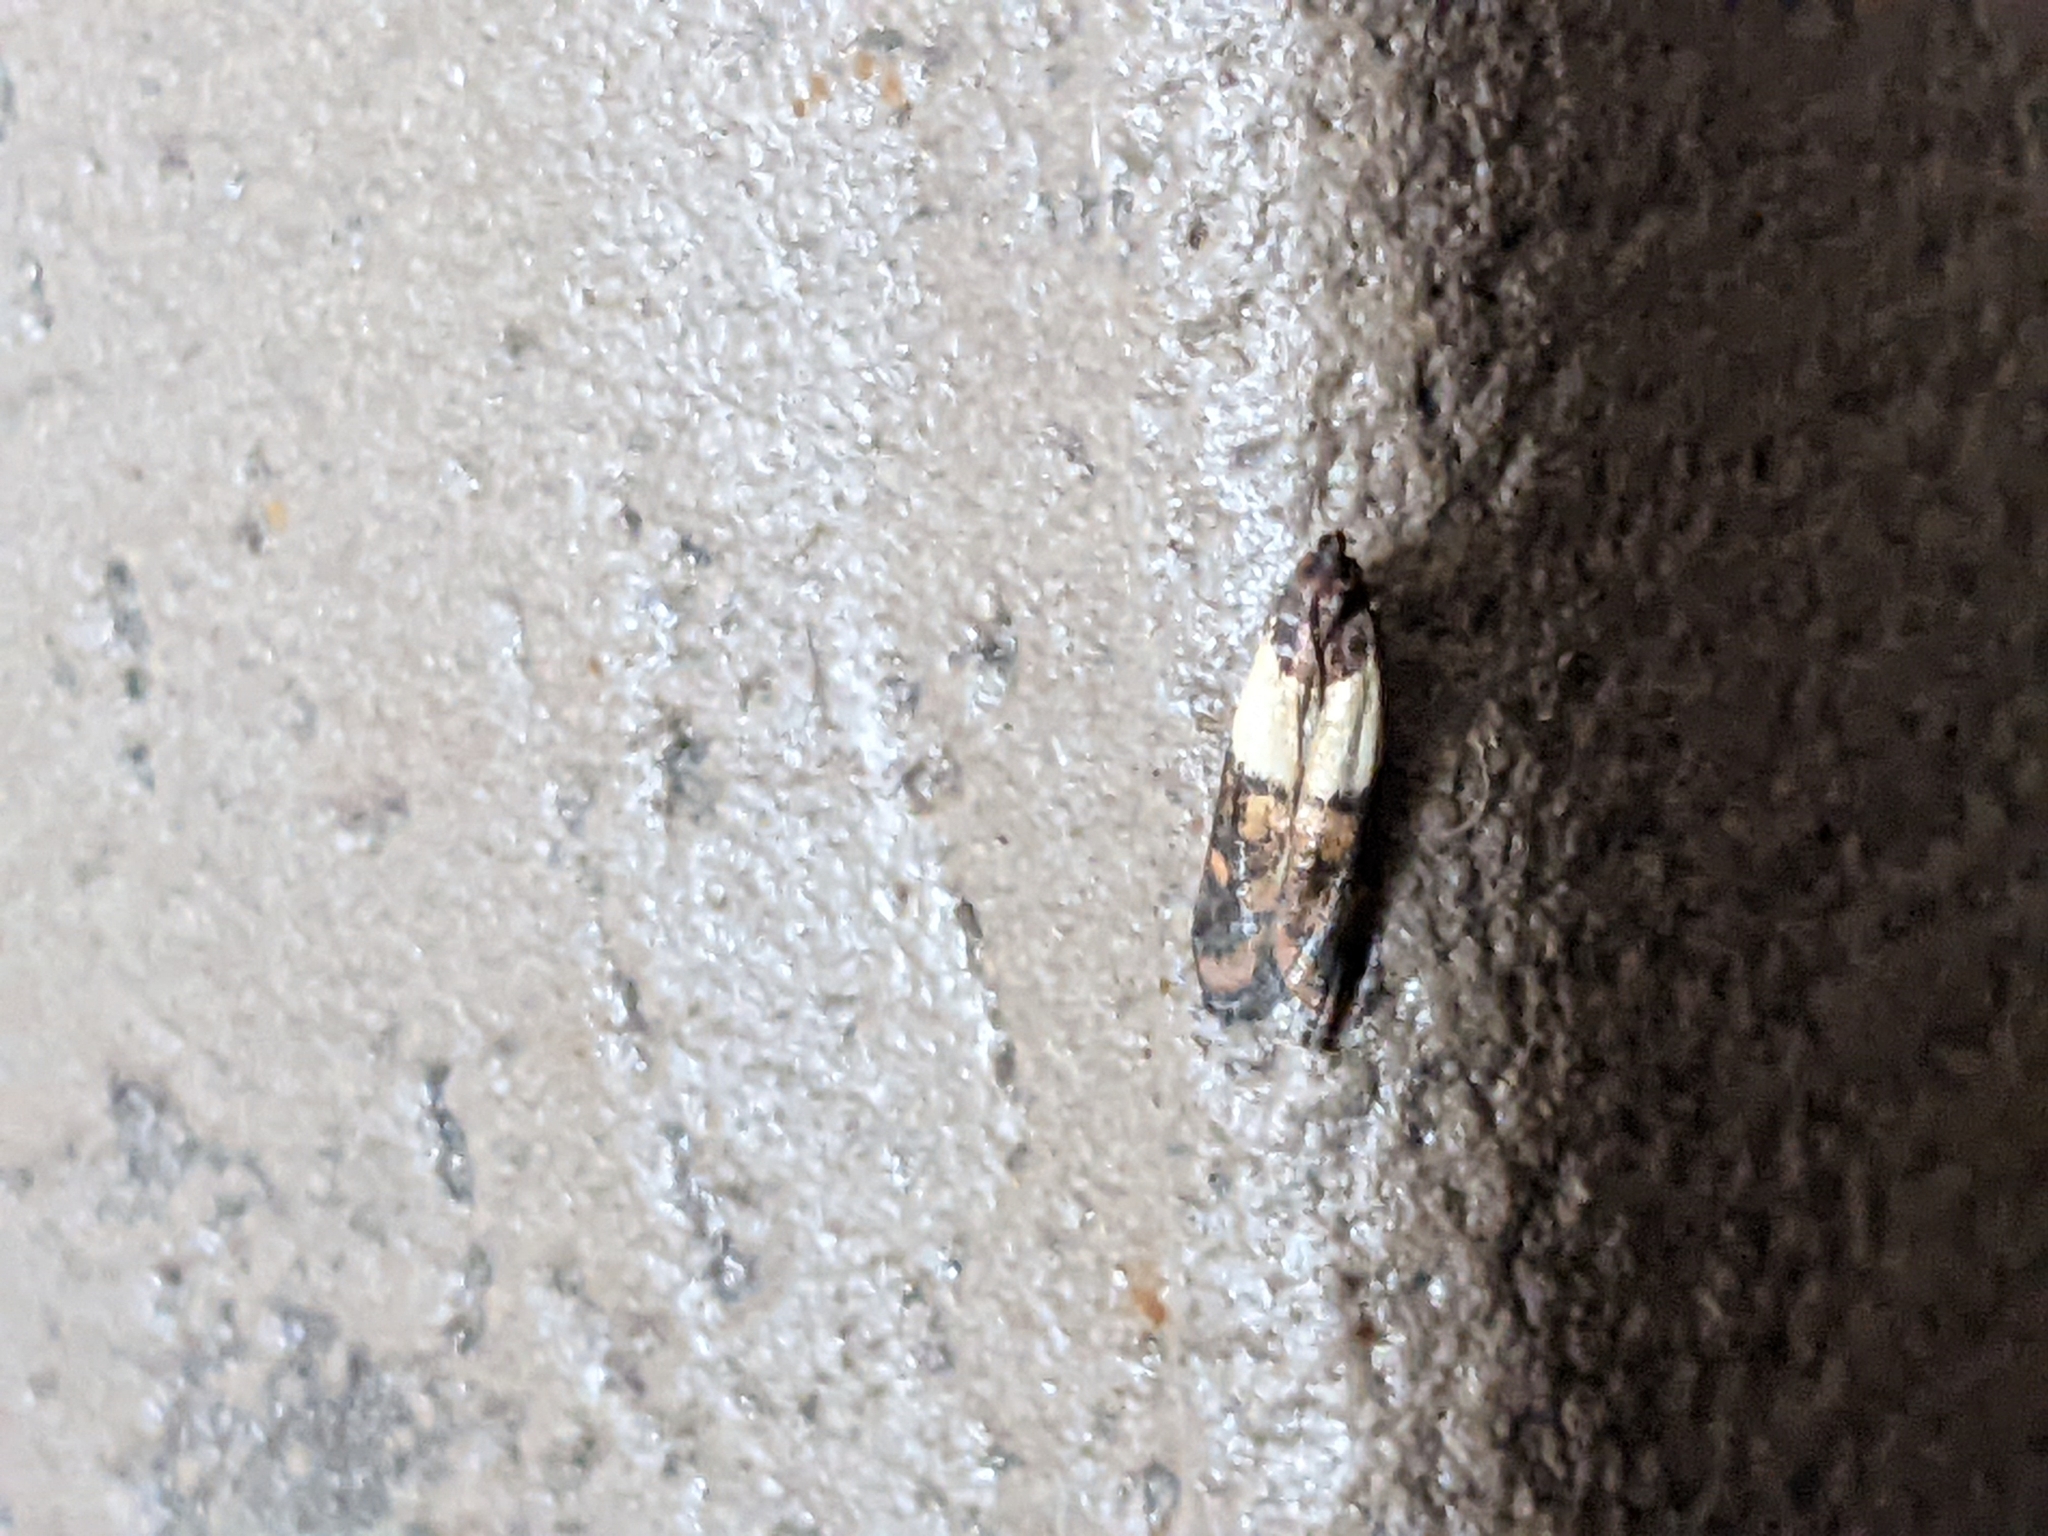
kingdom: Animalia
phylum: Arthropoda
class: Insecta
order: Lepidoptera
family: Pyralidae
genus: Plodia
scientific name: Plodia interpunctella
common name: Indian meal moth
